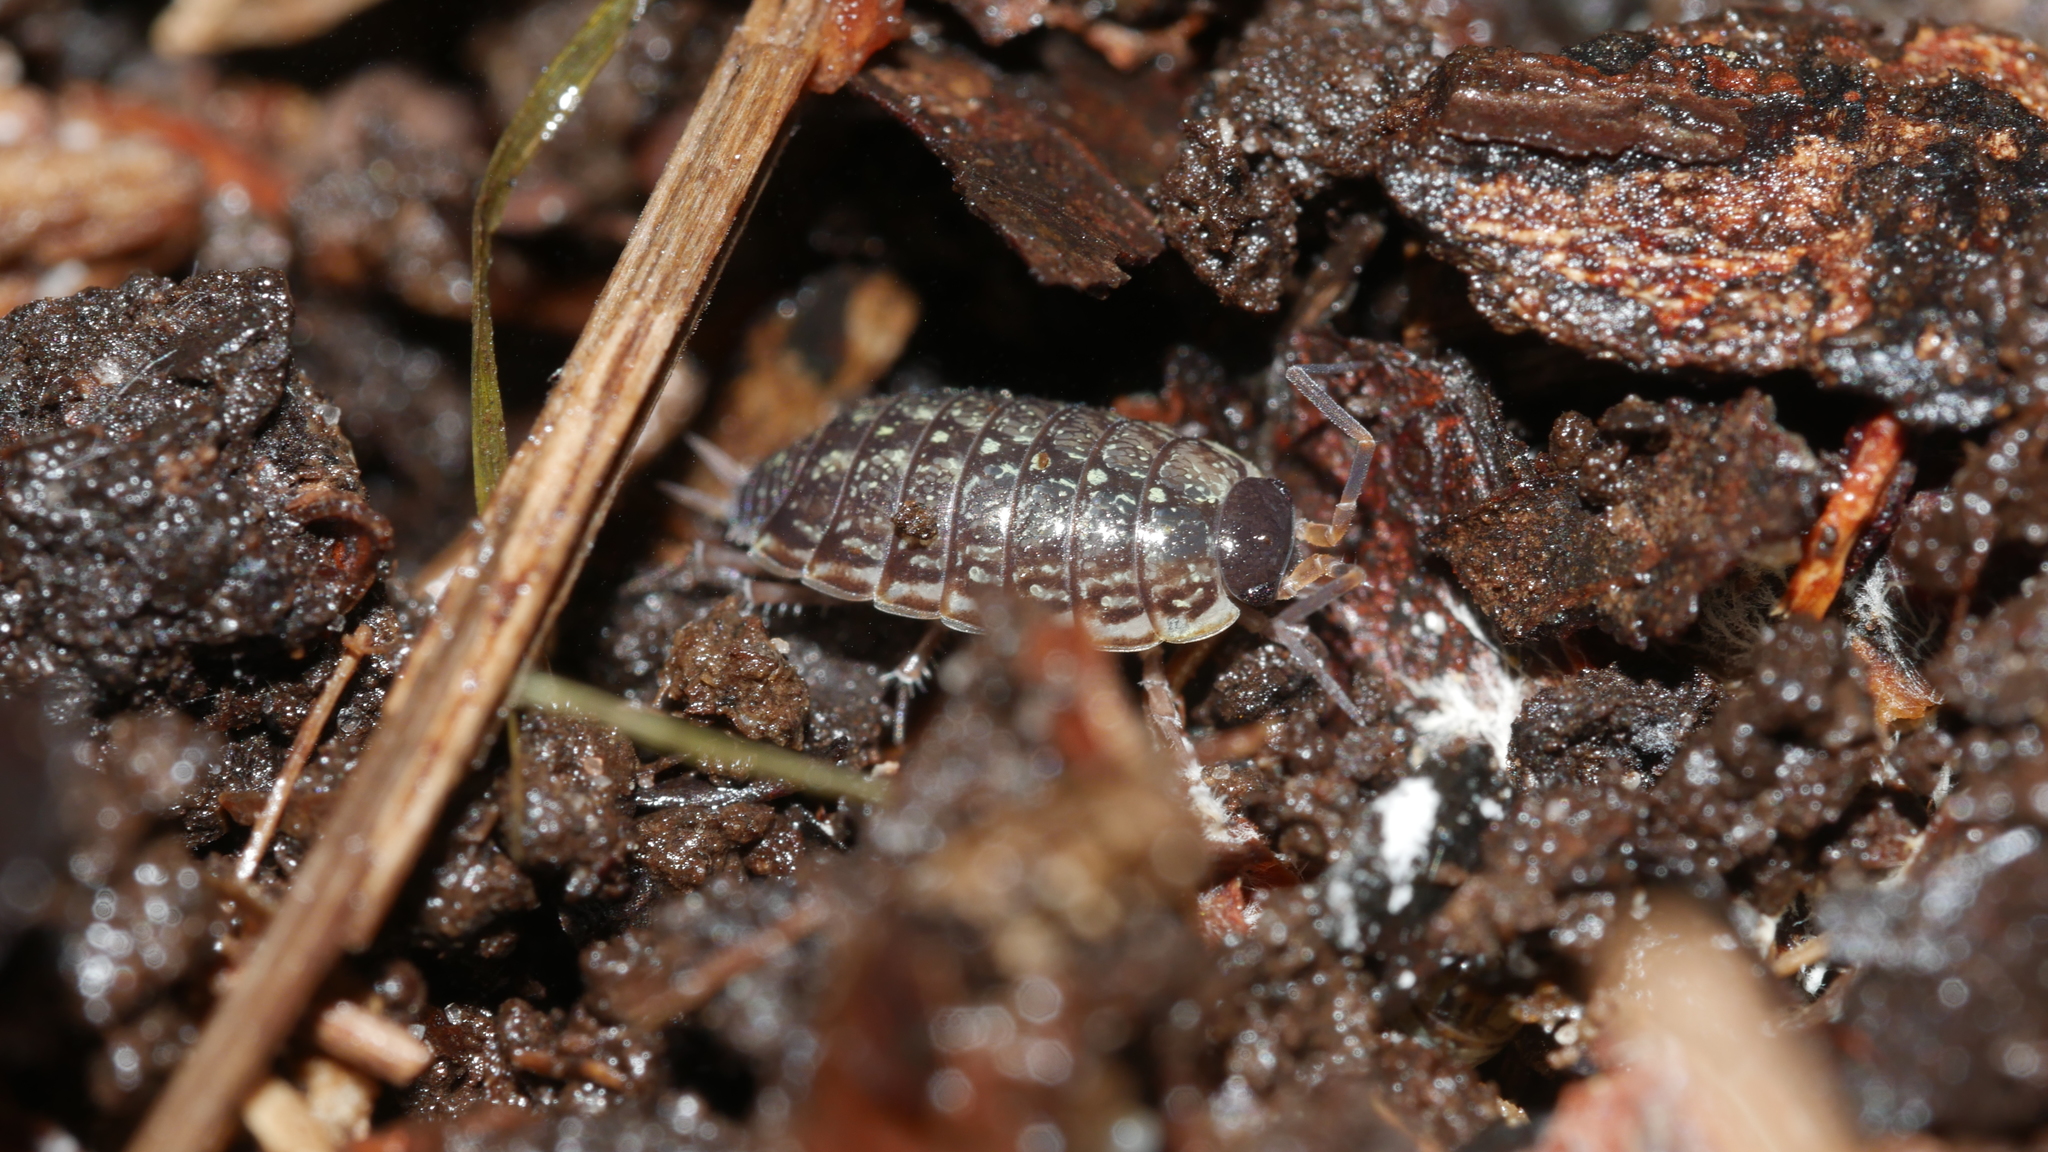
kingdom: Animalia
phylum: Arthropoda
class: Malacostraca
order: Isopoda
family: Philosciidae
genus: Philoscia
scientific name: Philoscia muscorum
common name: Common striped woodlouse
